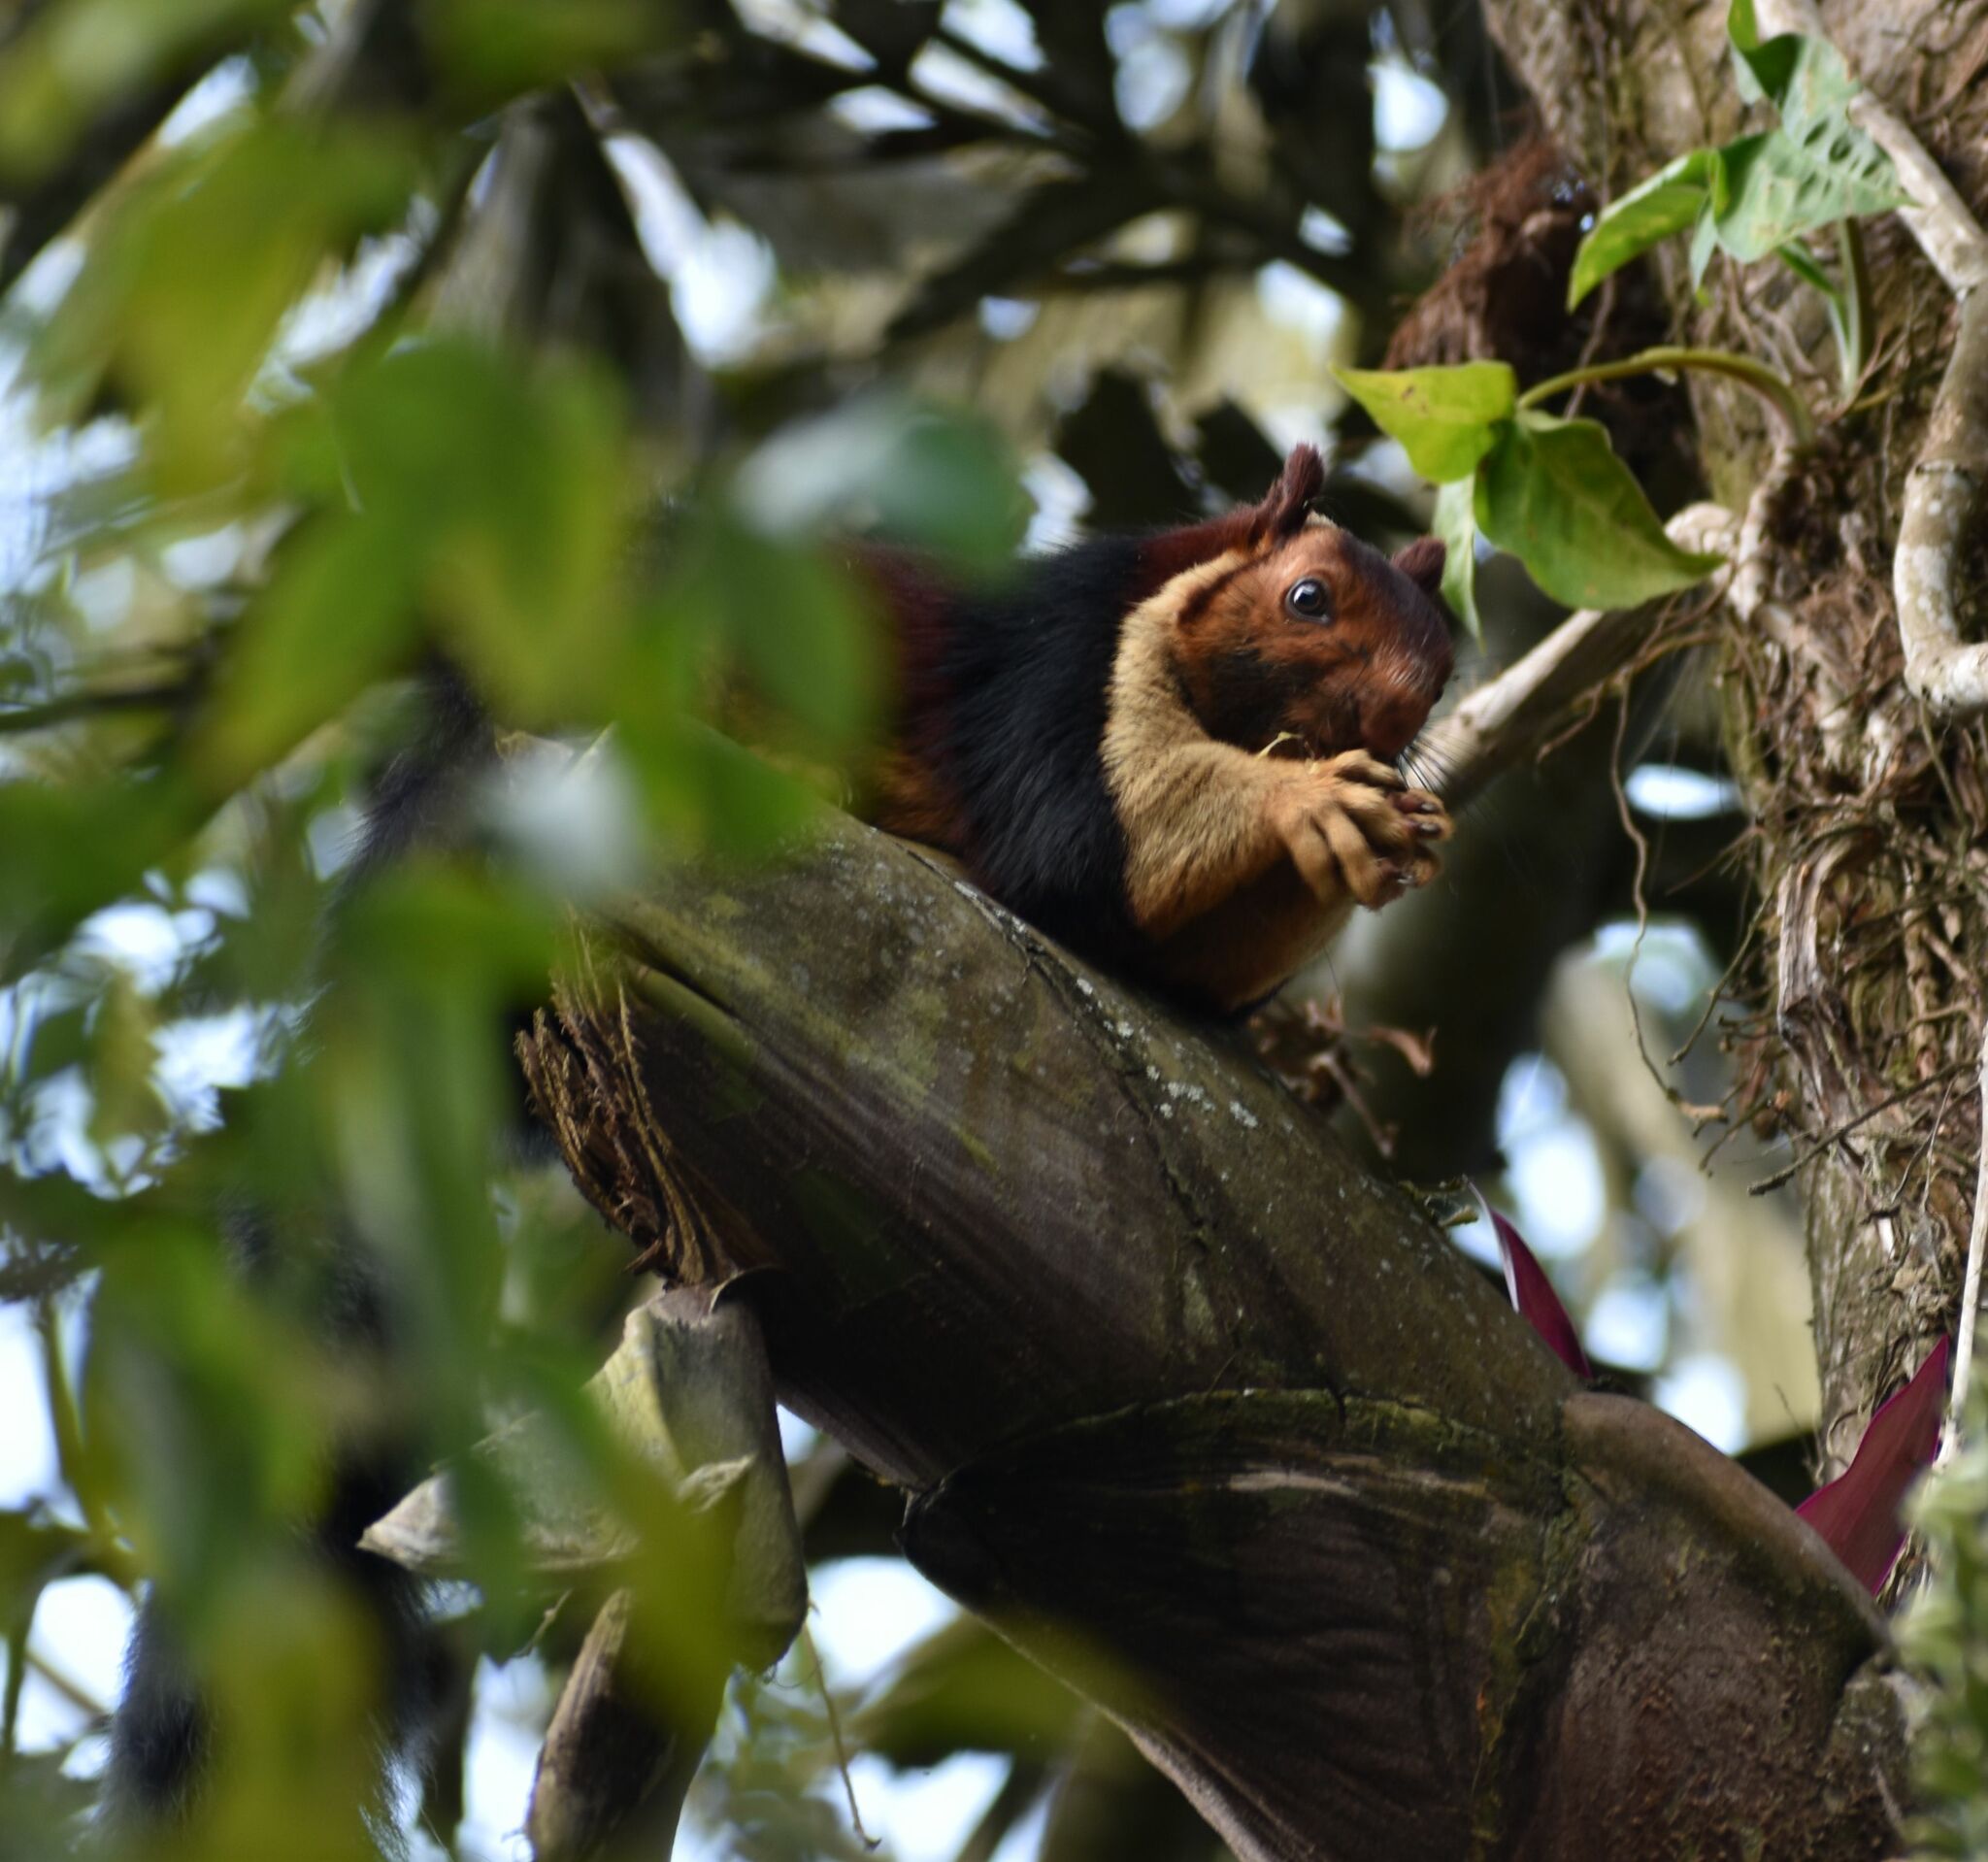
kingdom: Animalia
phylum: Chordata
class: Mammalia
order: Rodentia
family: Sciuridae
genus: Ratufa
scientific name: Ratufa indica
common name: Indian giant squirrel
